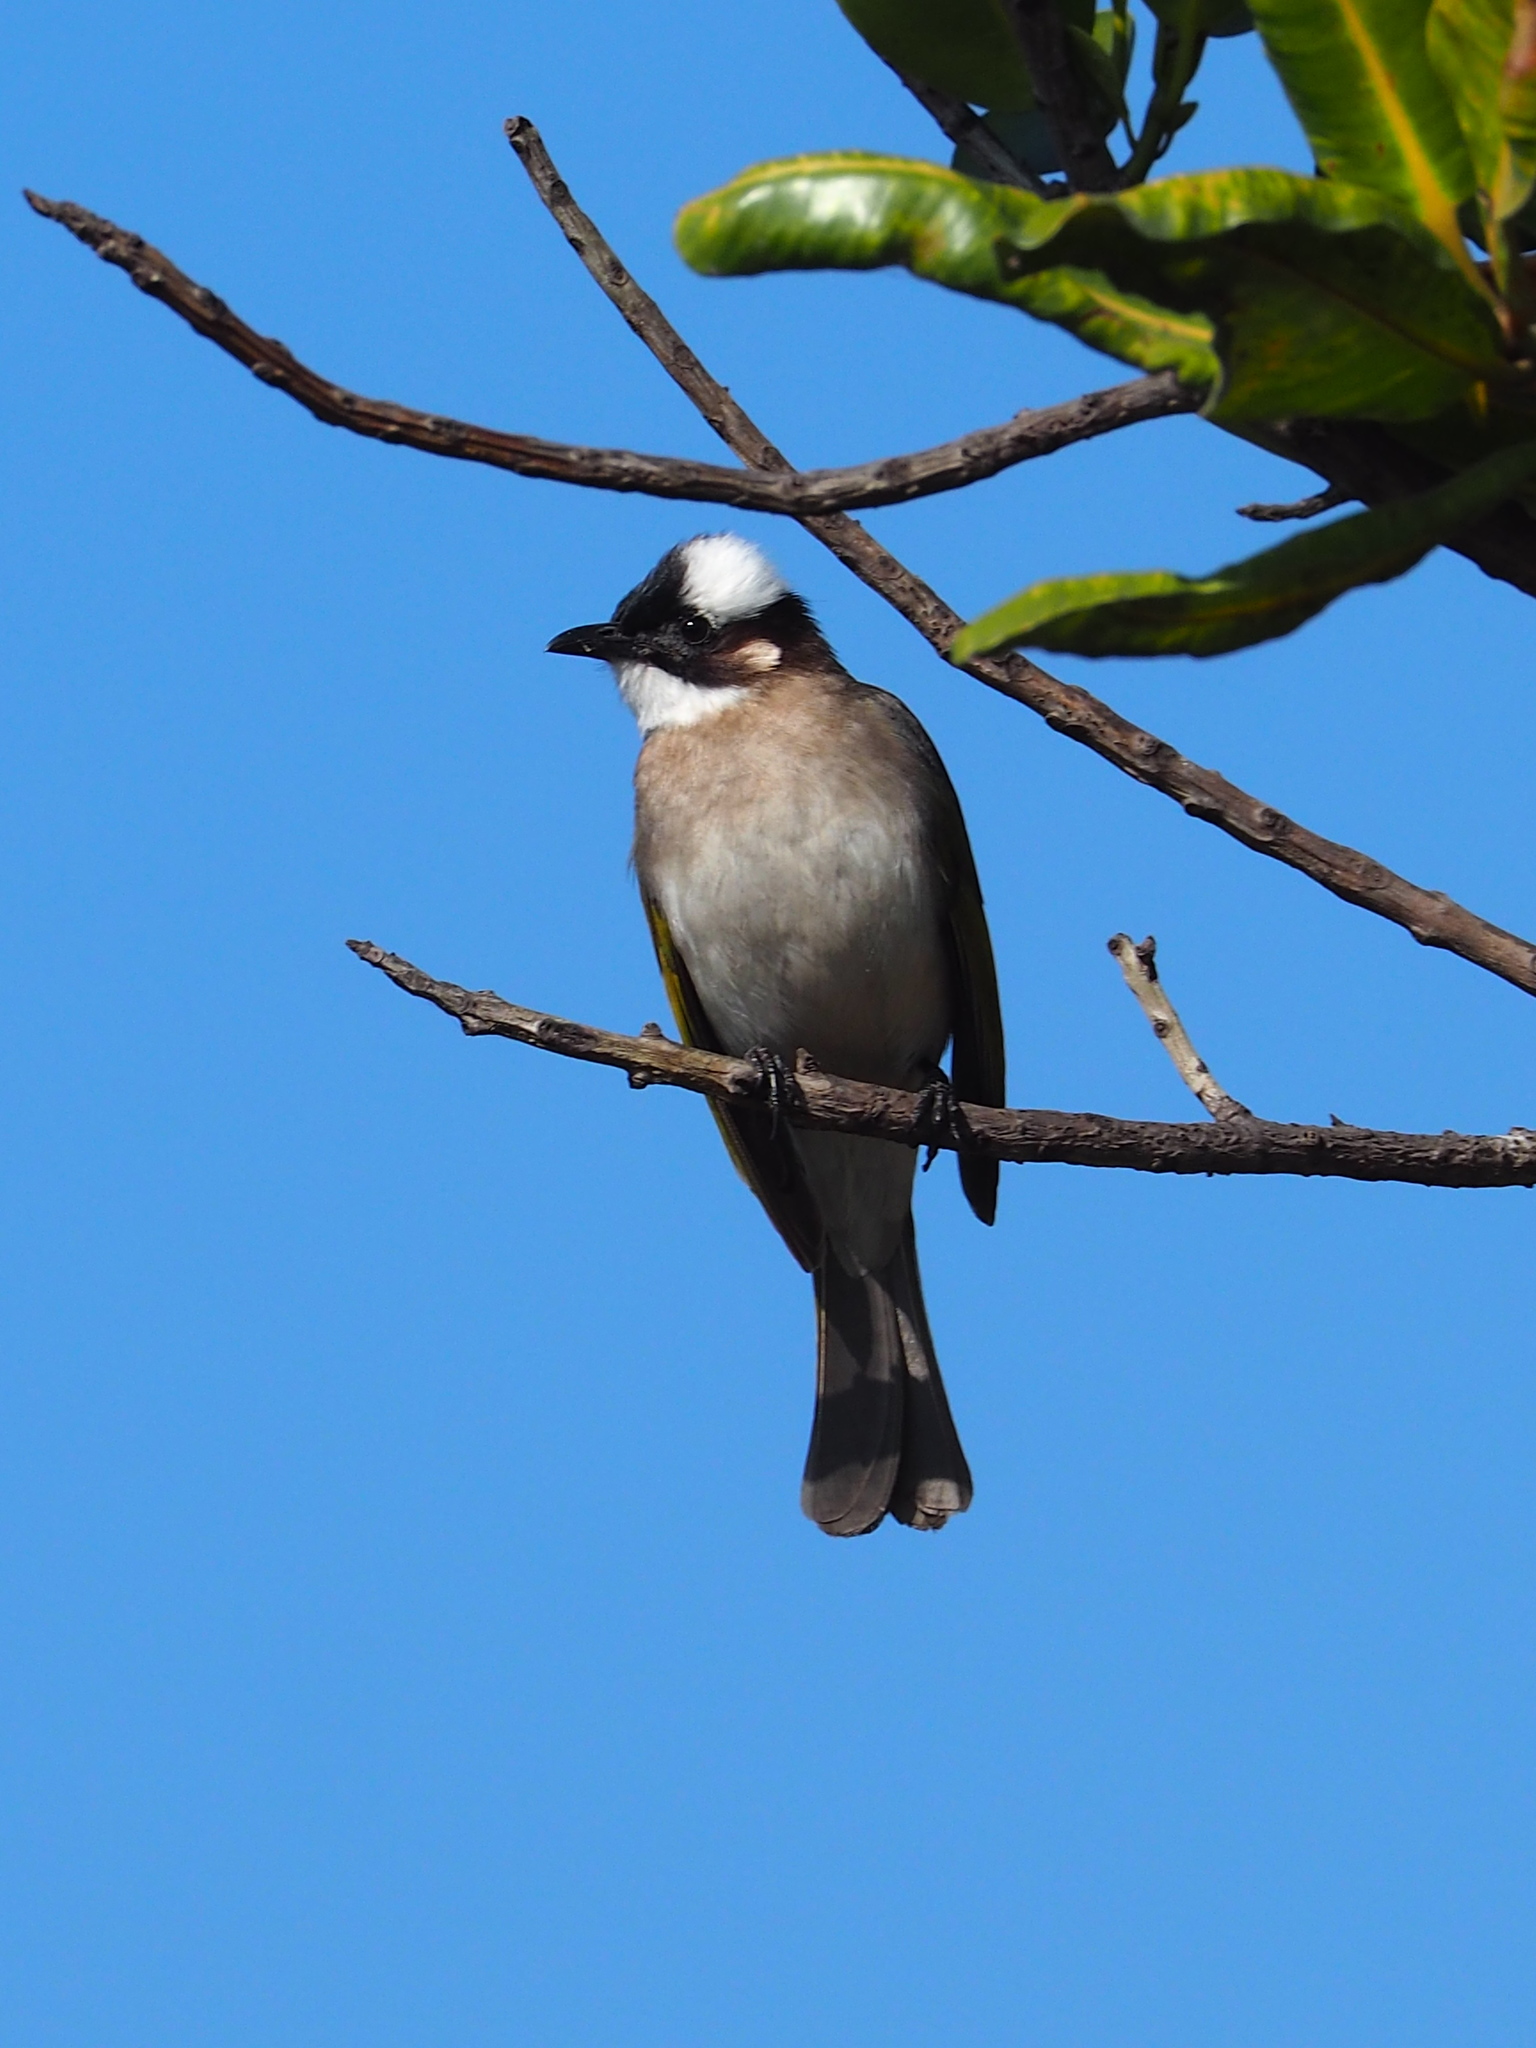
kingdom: Animalia
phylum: Chordata
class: Aves
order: Passeriformes
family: Pycnonotidae
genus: Pycnonotus
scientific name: Pycnonotus sinensis
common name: Light-vented bulbul
